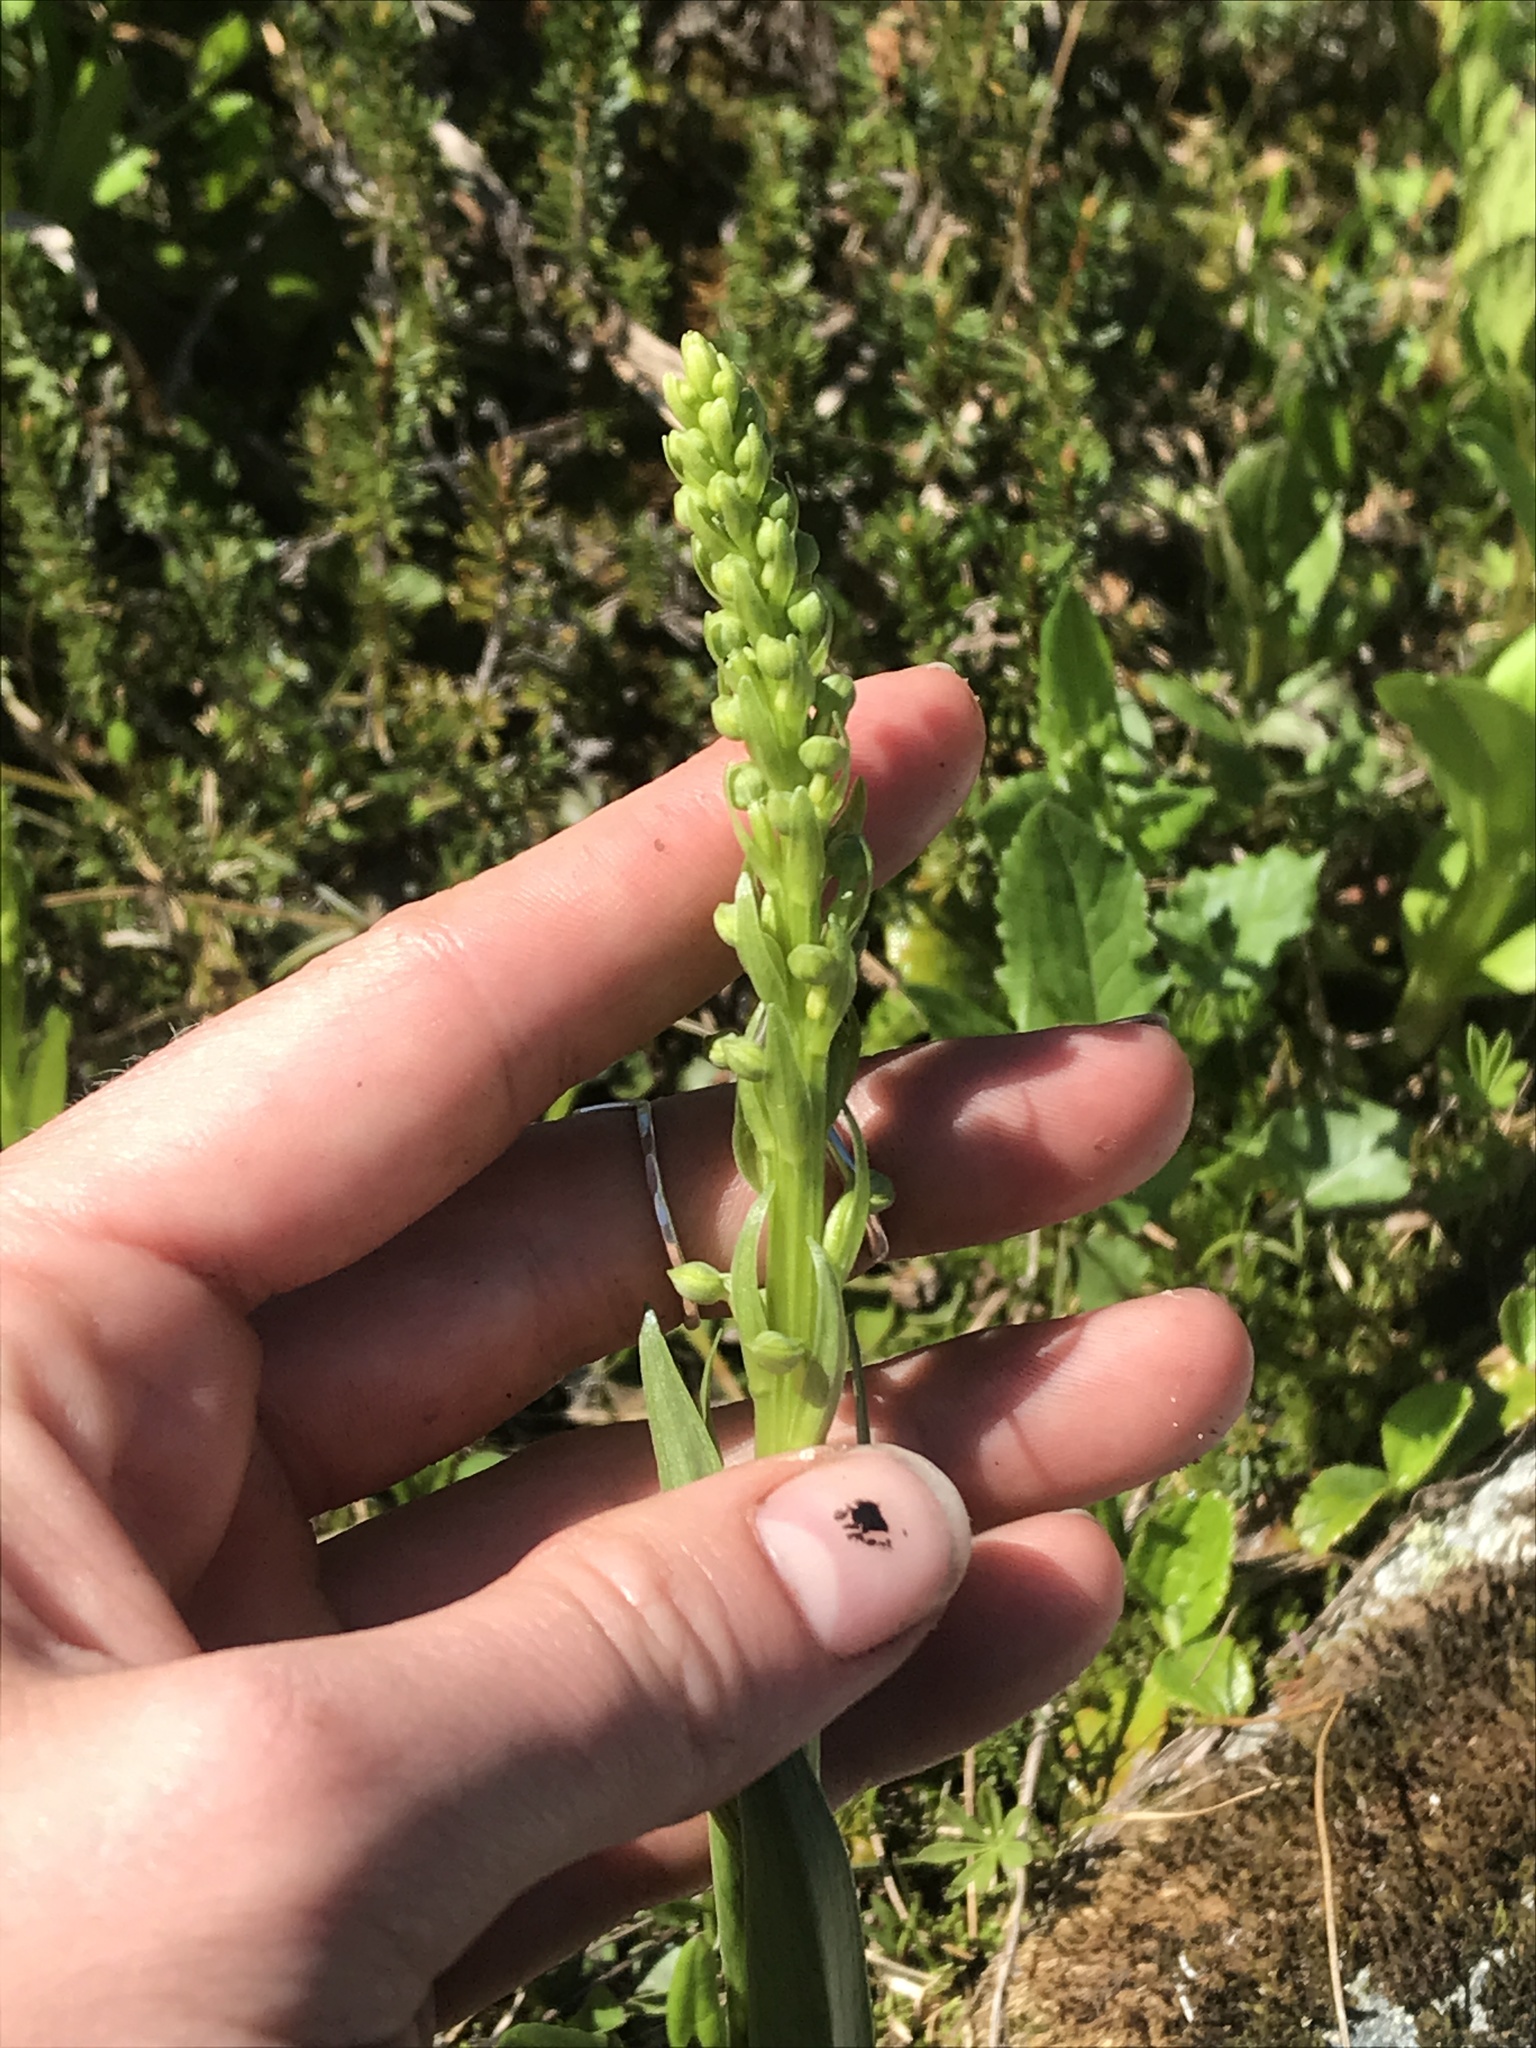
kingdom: Plantae
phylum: Tracheophyta
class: Liliopsida
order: Asparagales
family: Orchidaceae
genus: Platanthera
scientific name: Platanthera stricta
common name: Slender bog orchid
